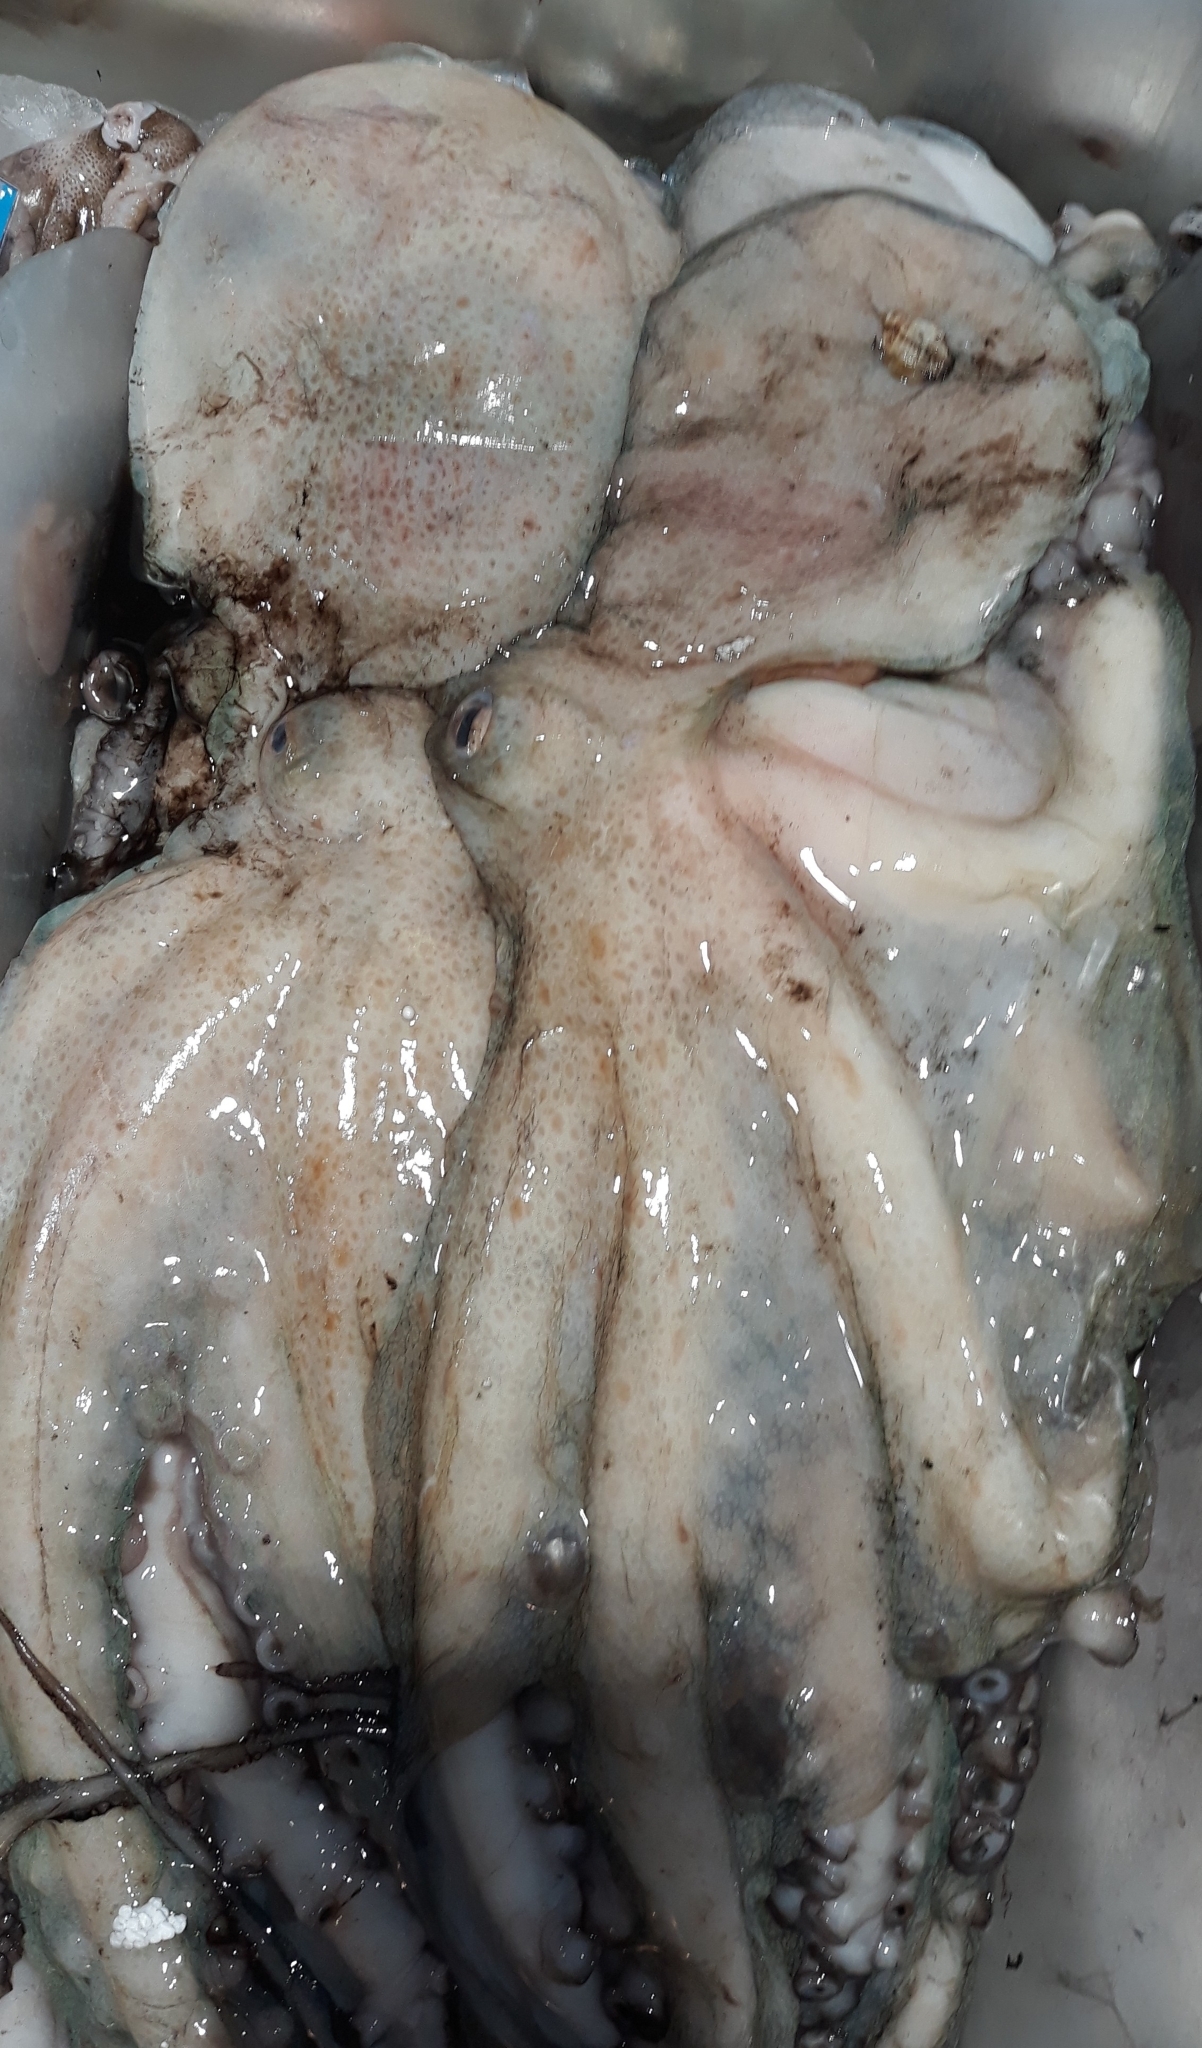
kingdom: Animalia
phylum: Mollusca
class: Cephalopoda
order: Octopoda
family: Octopodidae
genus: Octopus
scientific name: Octopus vulgaris
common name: Common octopus
